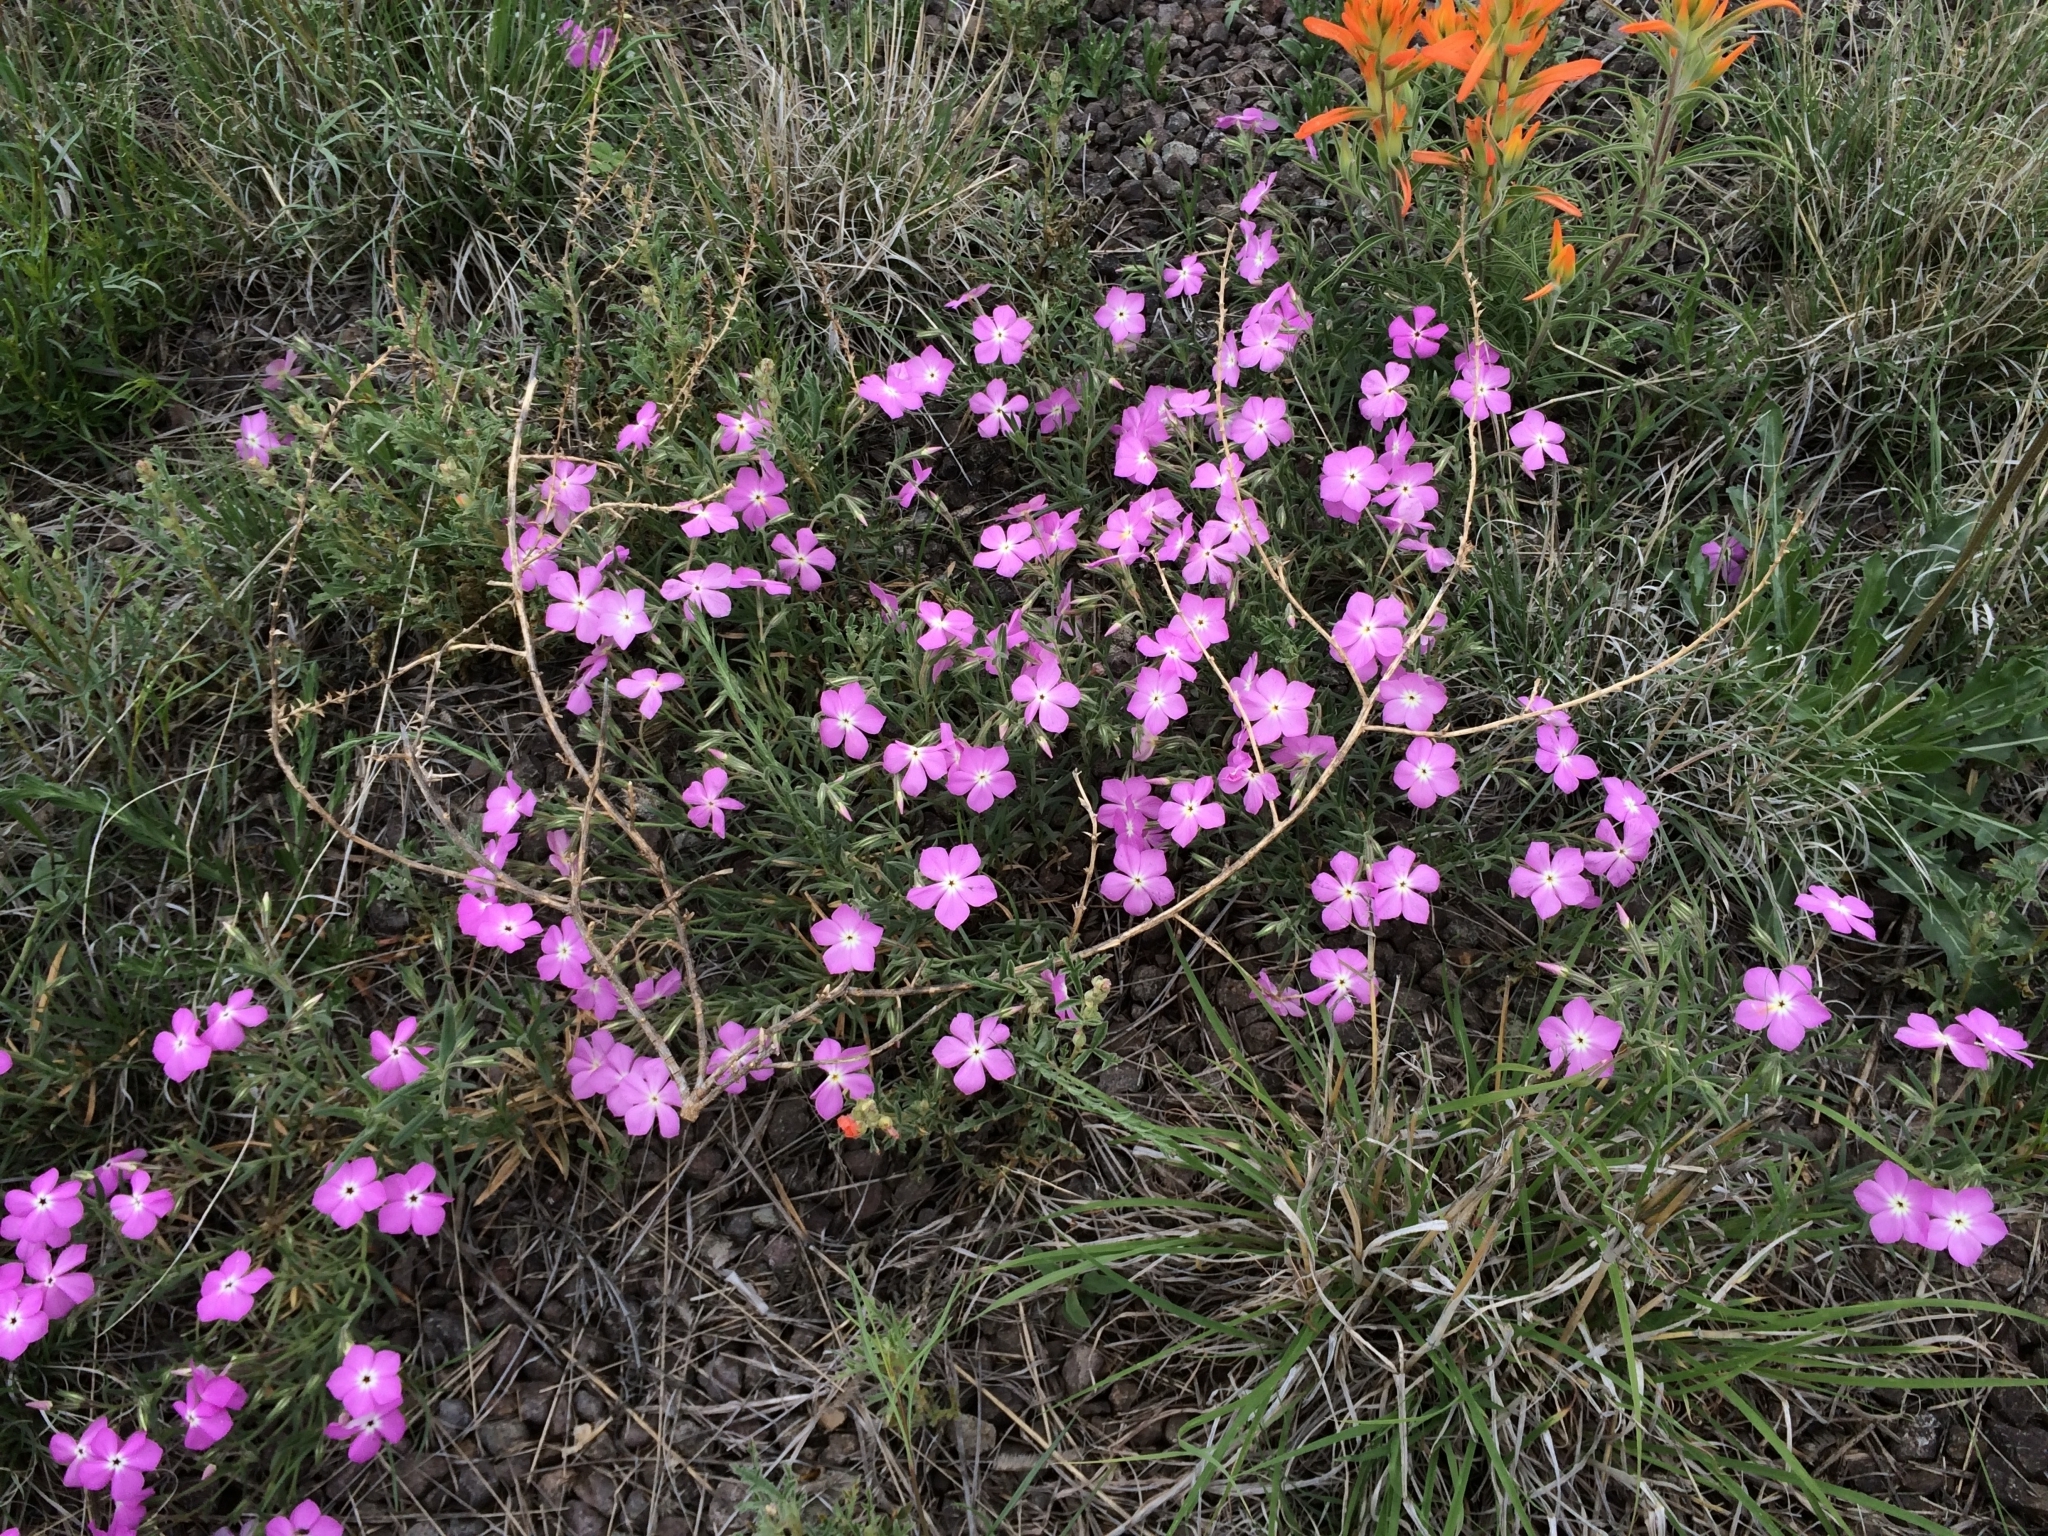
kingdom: Plantae
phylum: Tracheophyta
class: Magnoliopsida
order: Ericales
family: Polemoniaceae
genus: Phlox
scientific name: Phlox nana
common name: Santa fe phlox
